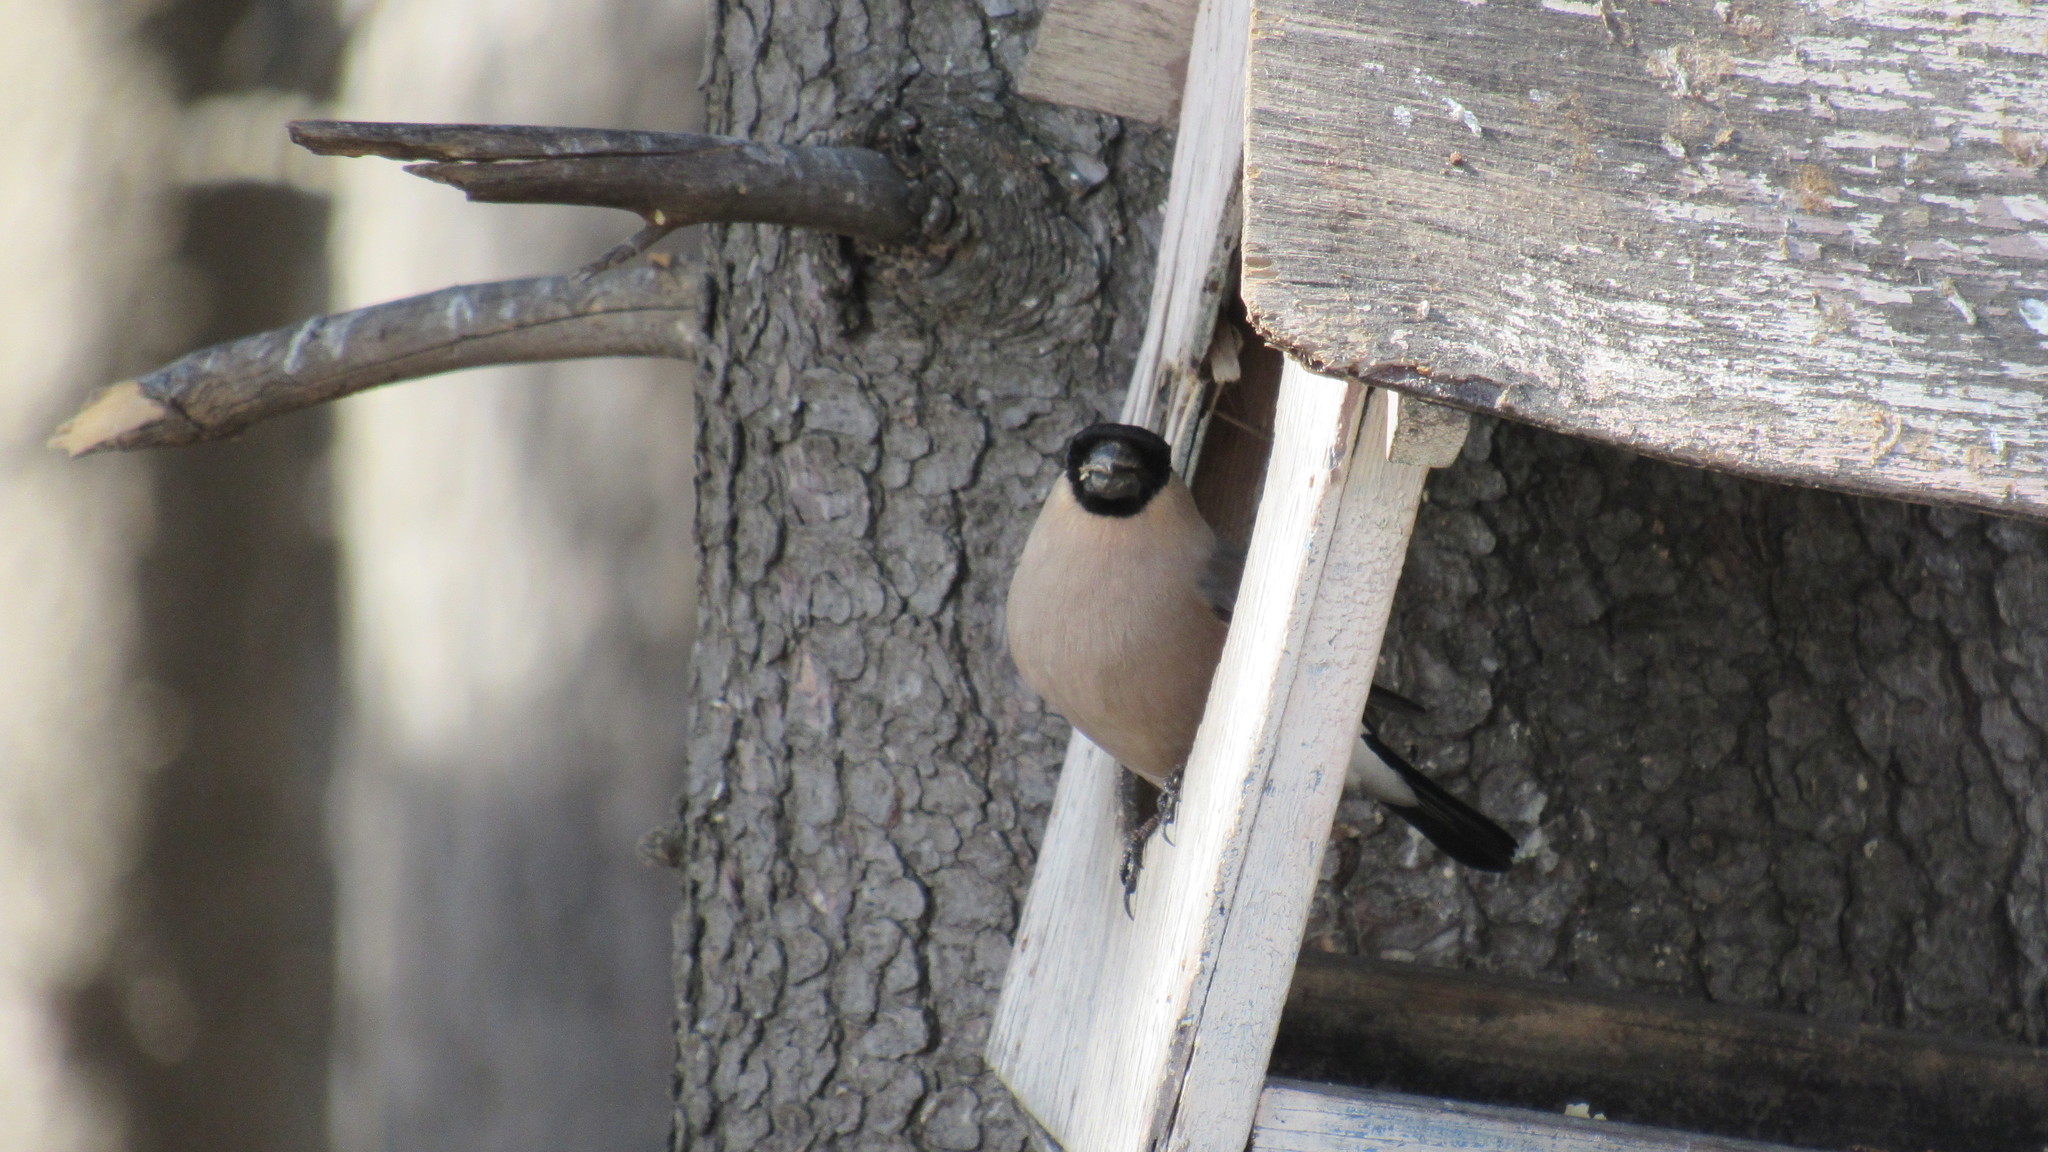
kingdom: Animalia
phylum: Chordata
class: Aves
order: Passeriformes
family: Fringillidae
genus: Pyrrhula
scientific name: Pyrrhula pyrrhula
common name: Eurasian bullfinch
